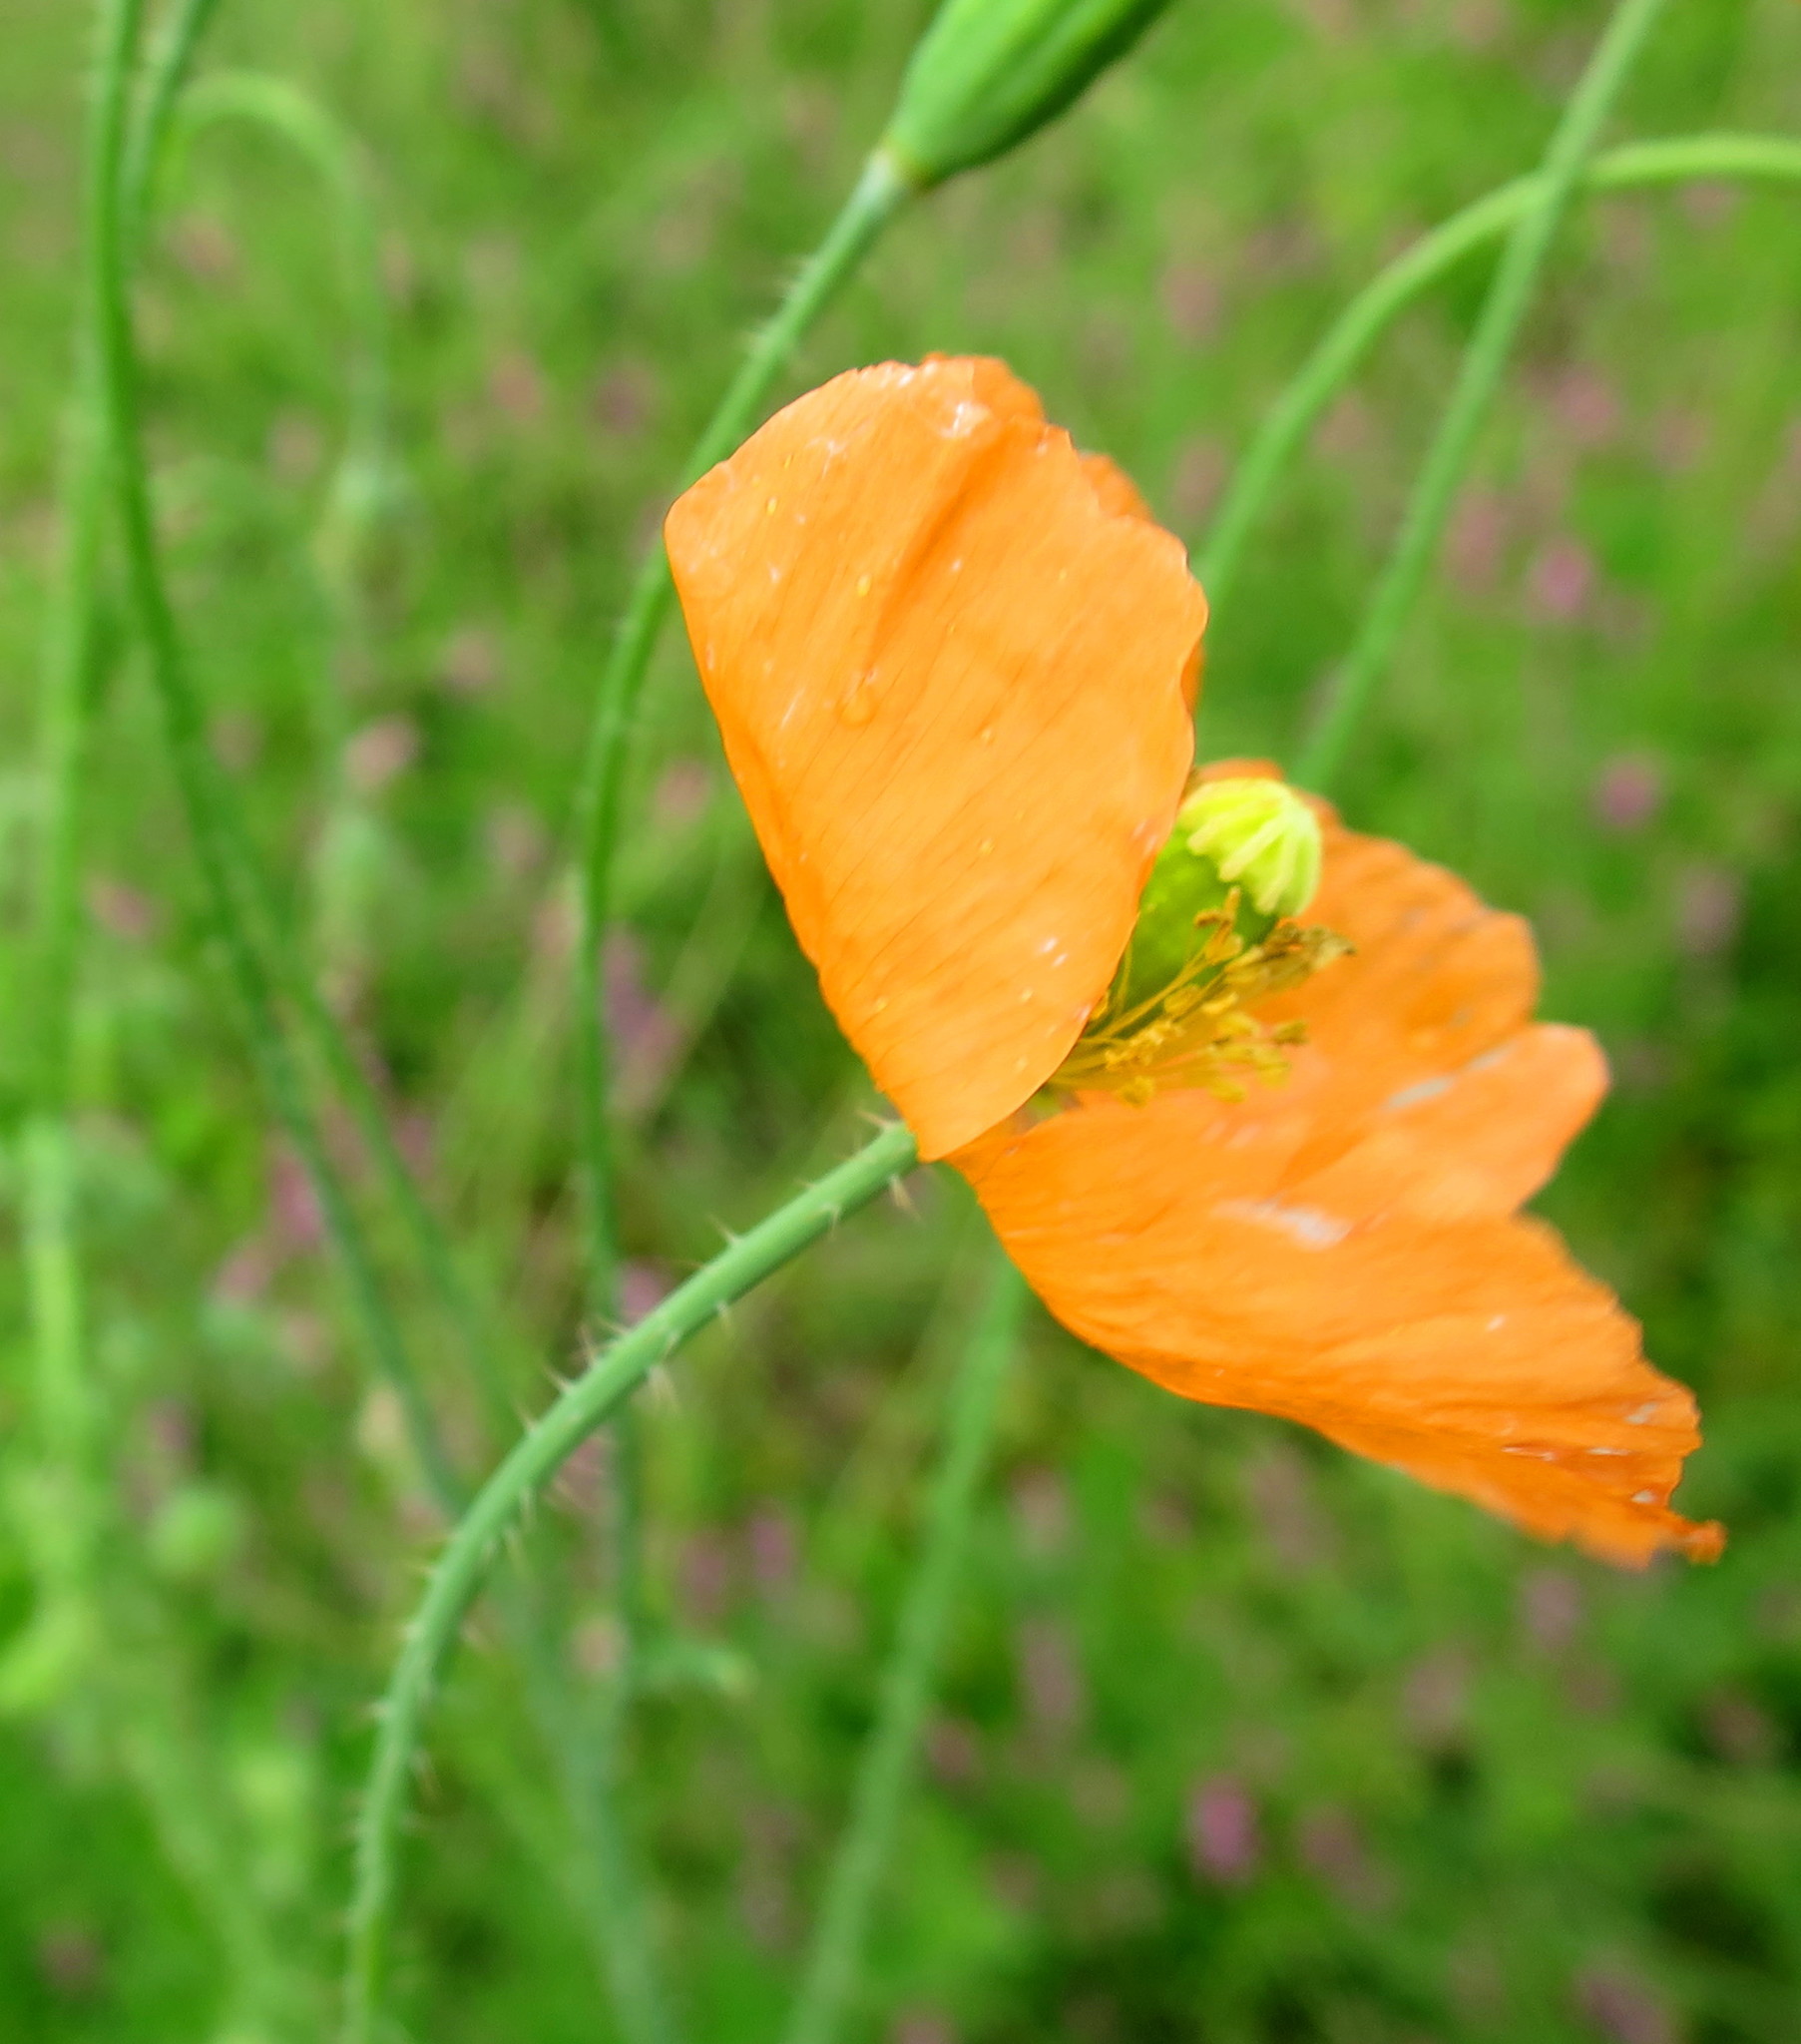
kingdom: Plantae
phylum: Tracheophyta
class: Magnoliopsida
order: Ranunculales
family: Papaveraceae
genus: Papaver
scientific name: Papaver aculeatum
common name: Bristle poppy
